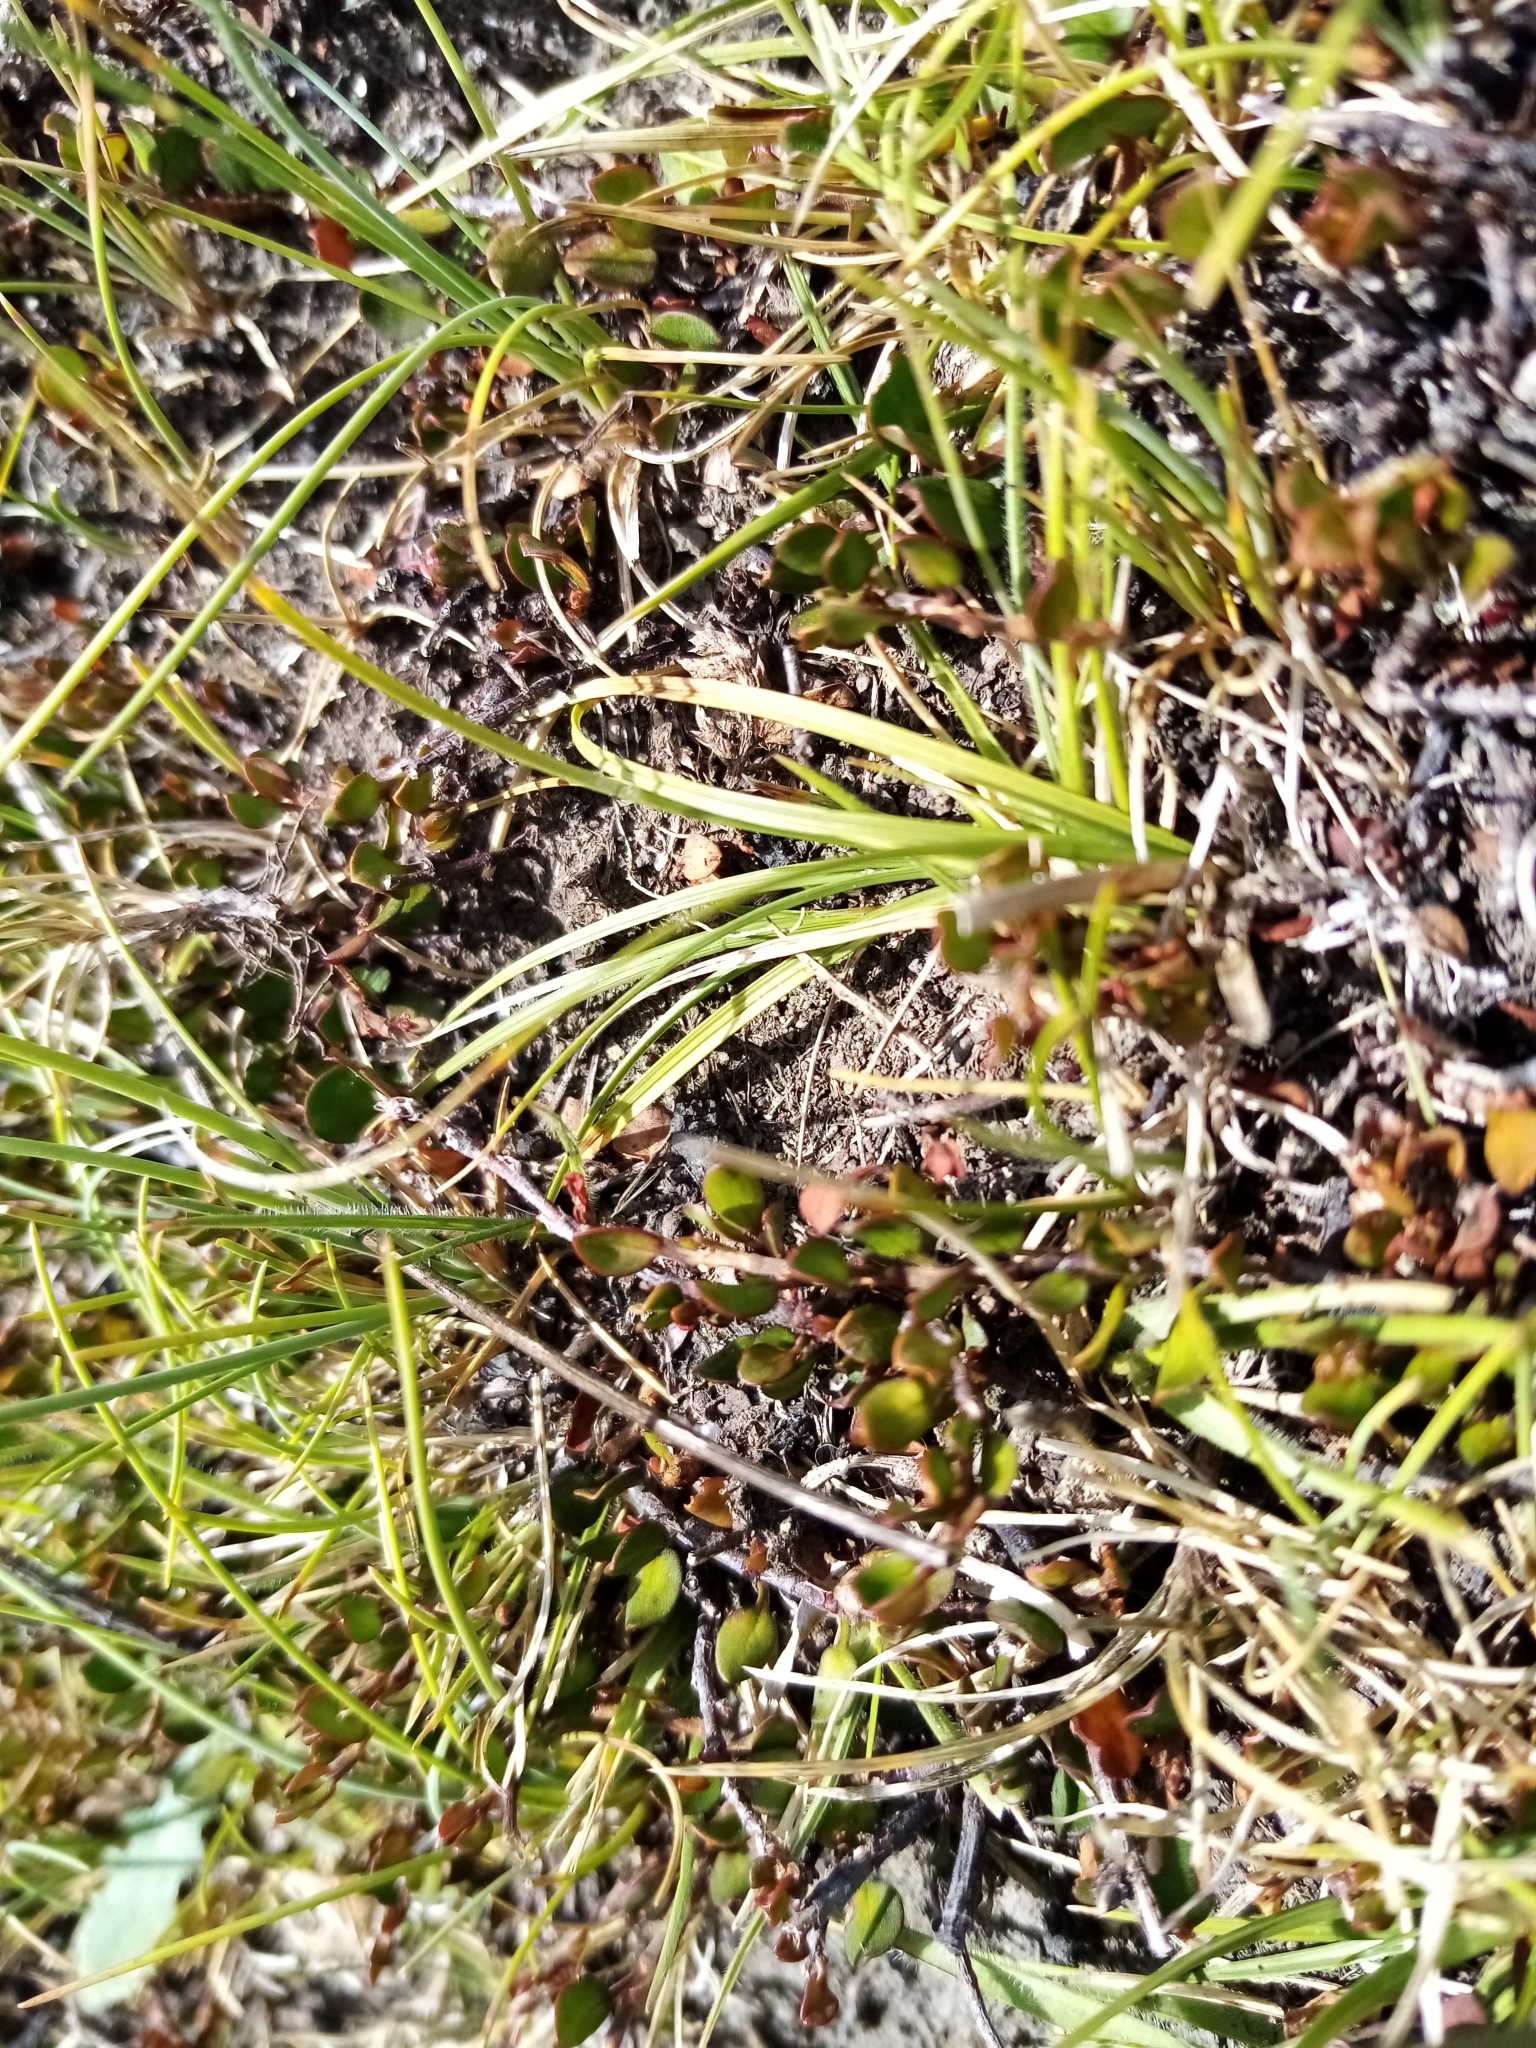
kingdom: Plantae
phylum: Tracheophyta
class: Magnoliopsida
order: Caryophyllales
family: Polygonaceae
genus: Muehlenbeckia
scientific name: Muehlenbeckia axillaris
